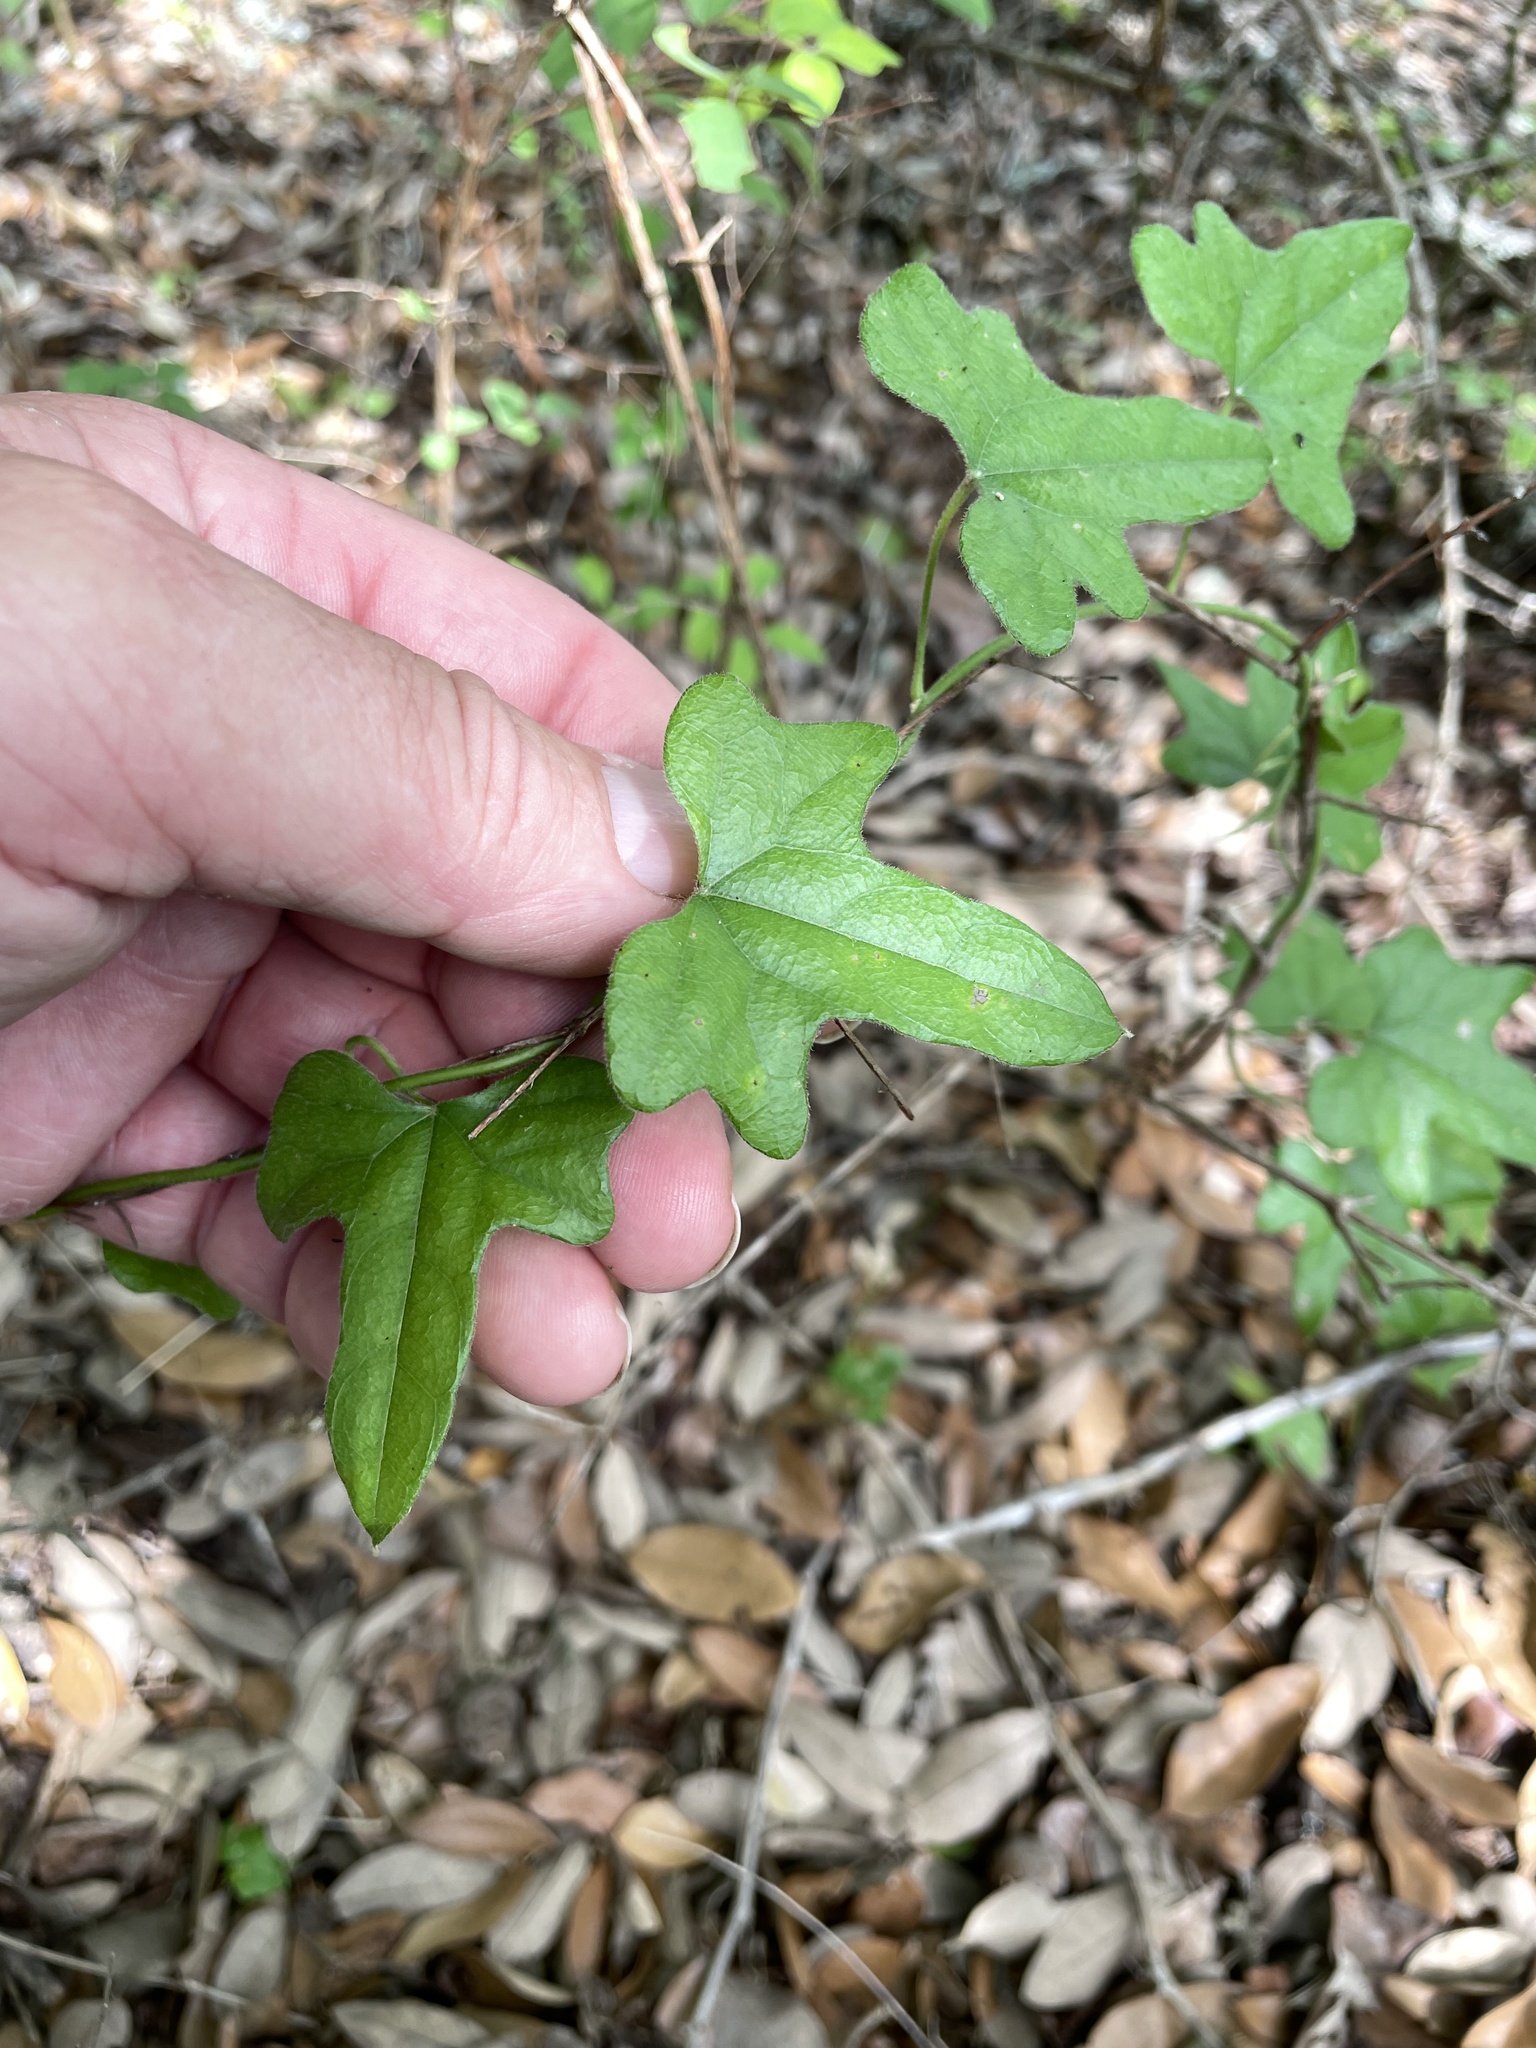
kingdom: Plantae
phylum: Tracheophyta
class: Magnoliopsida
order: Ranunculales
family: Menispermaceae
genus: Cocculus
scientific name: Cocculus carolinus
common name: Carolina moonseed
